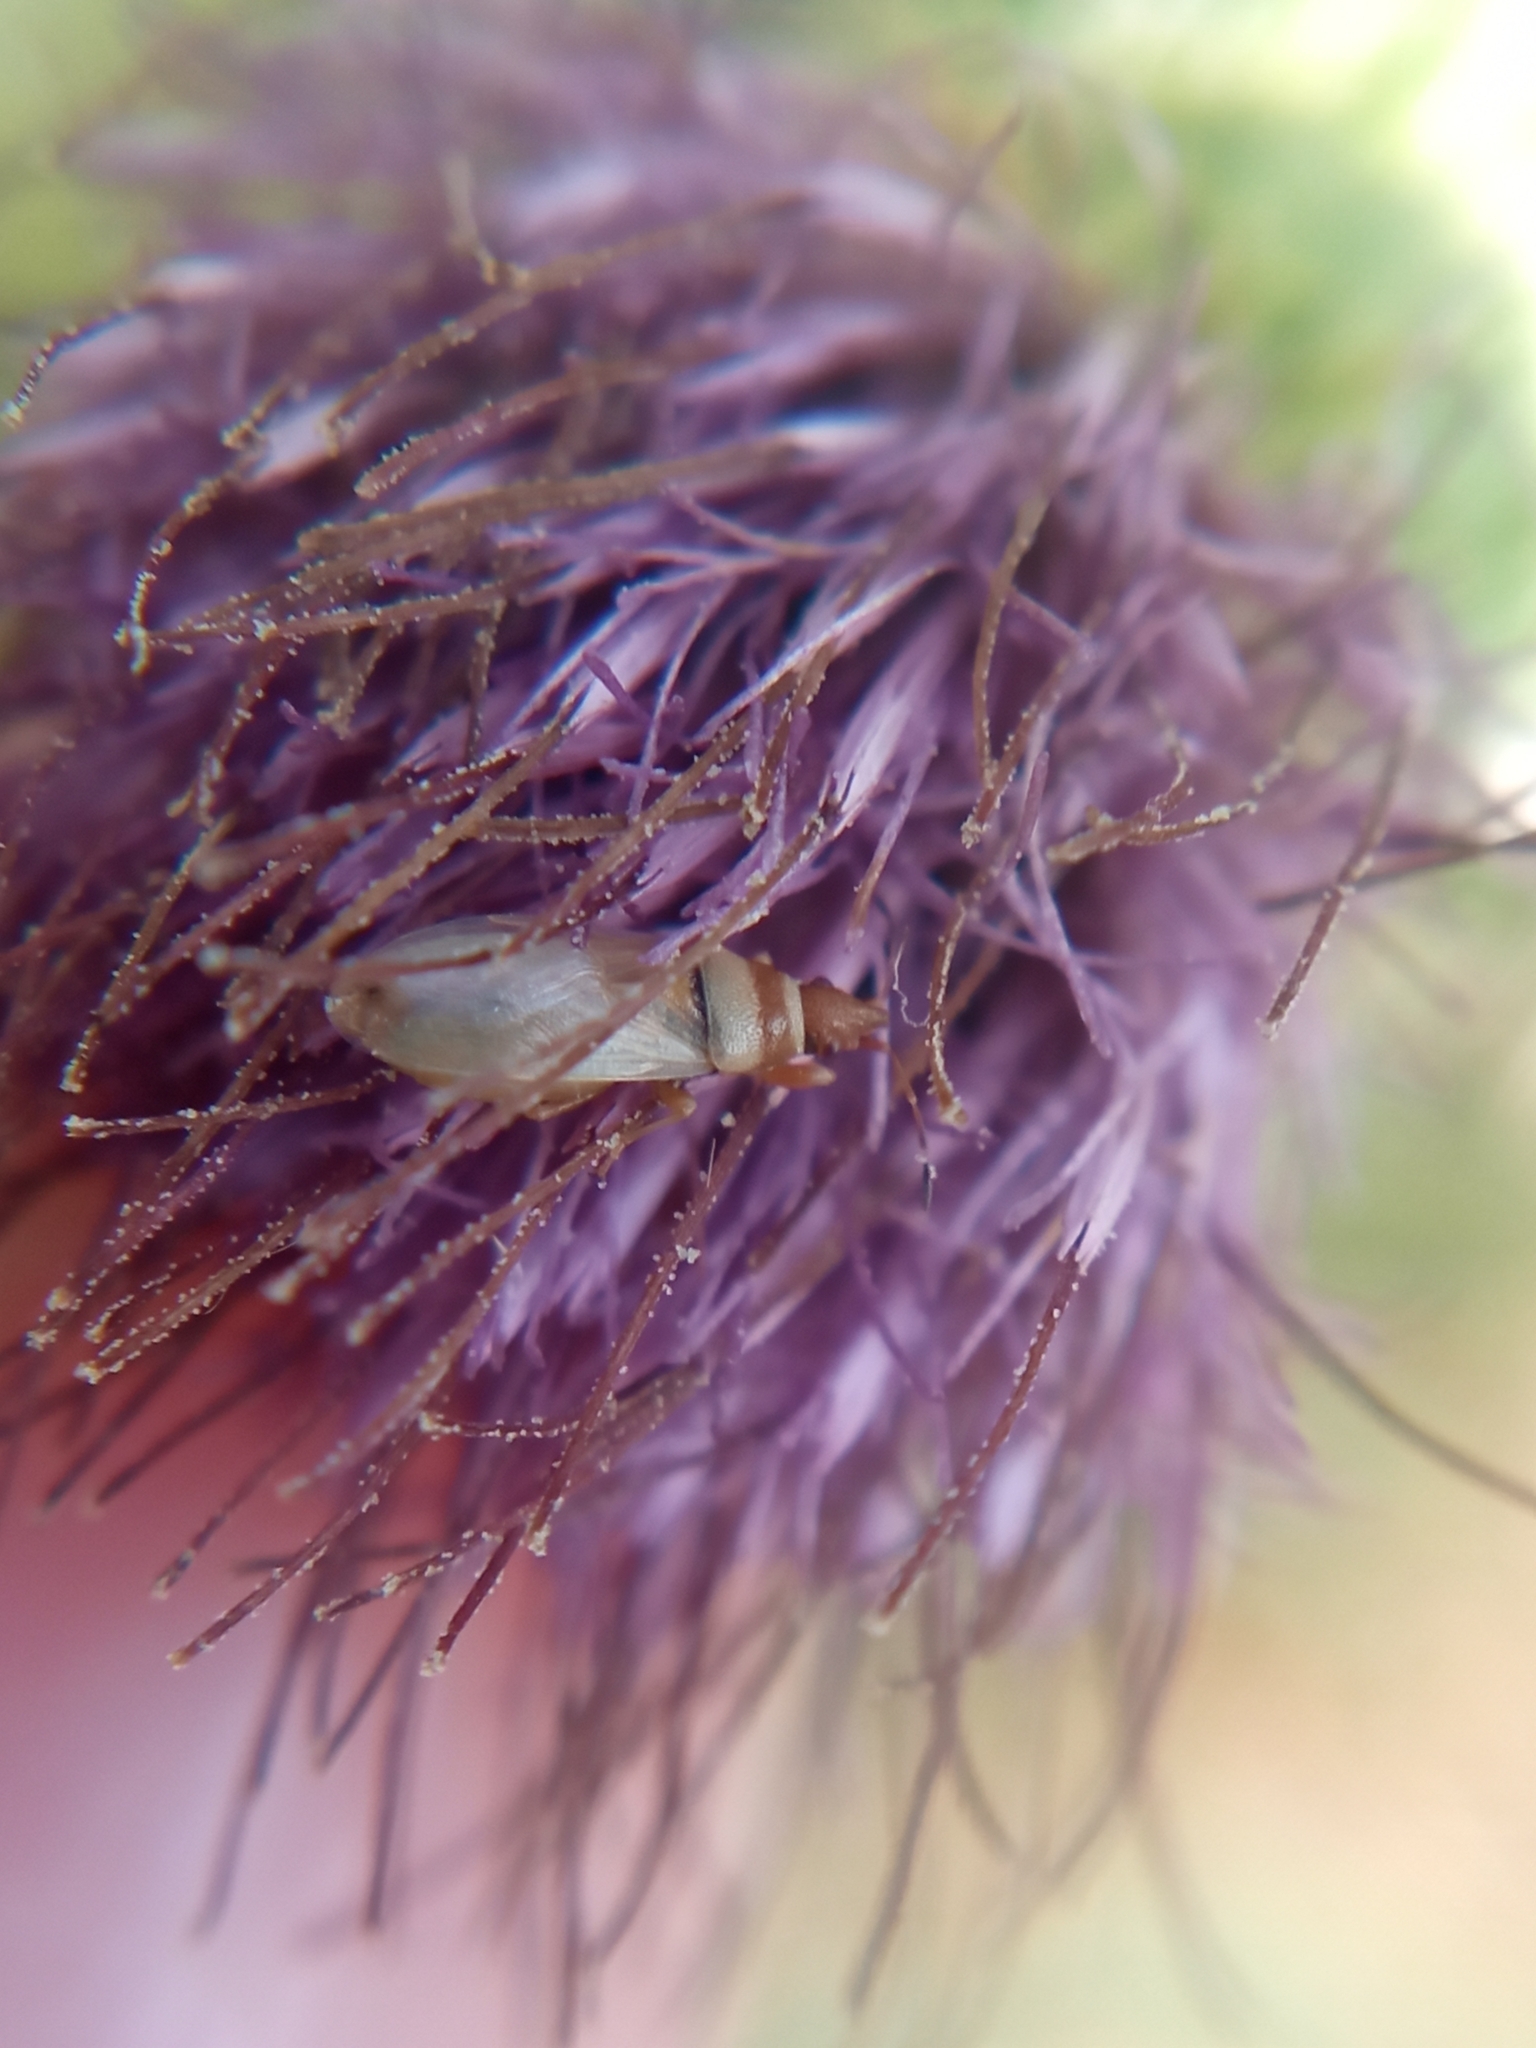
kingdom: Animalia
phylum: Arthropoda
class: Insecta
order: Hemiptera
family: Oxycarenidae
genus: Oxycarenus
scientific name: Oxycarenus pallens
